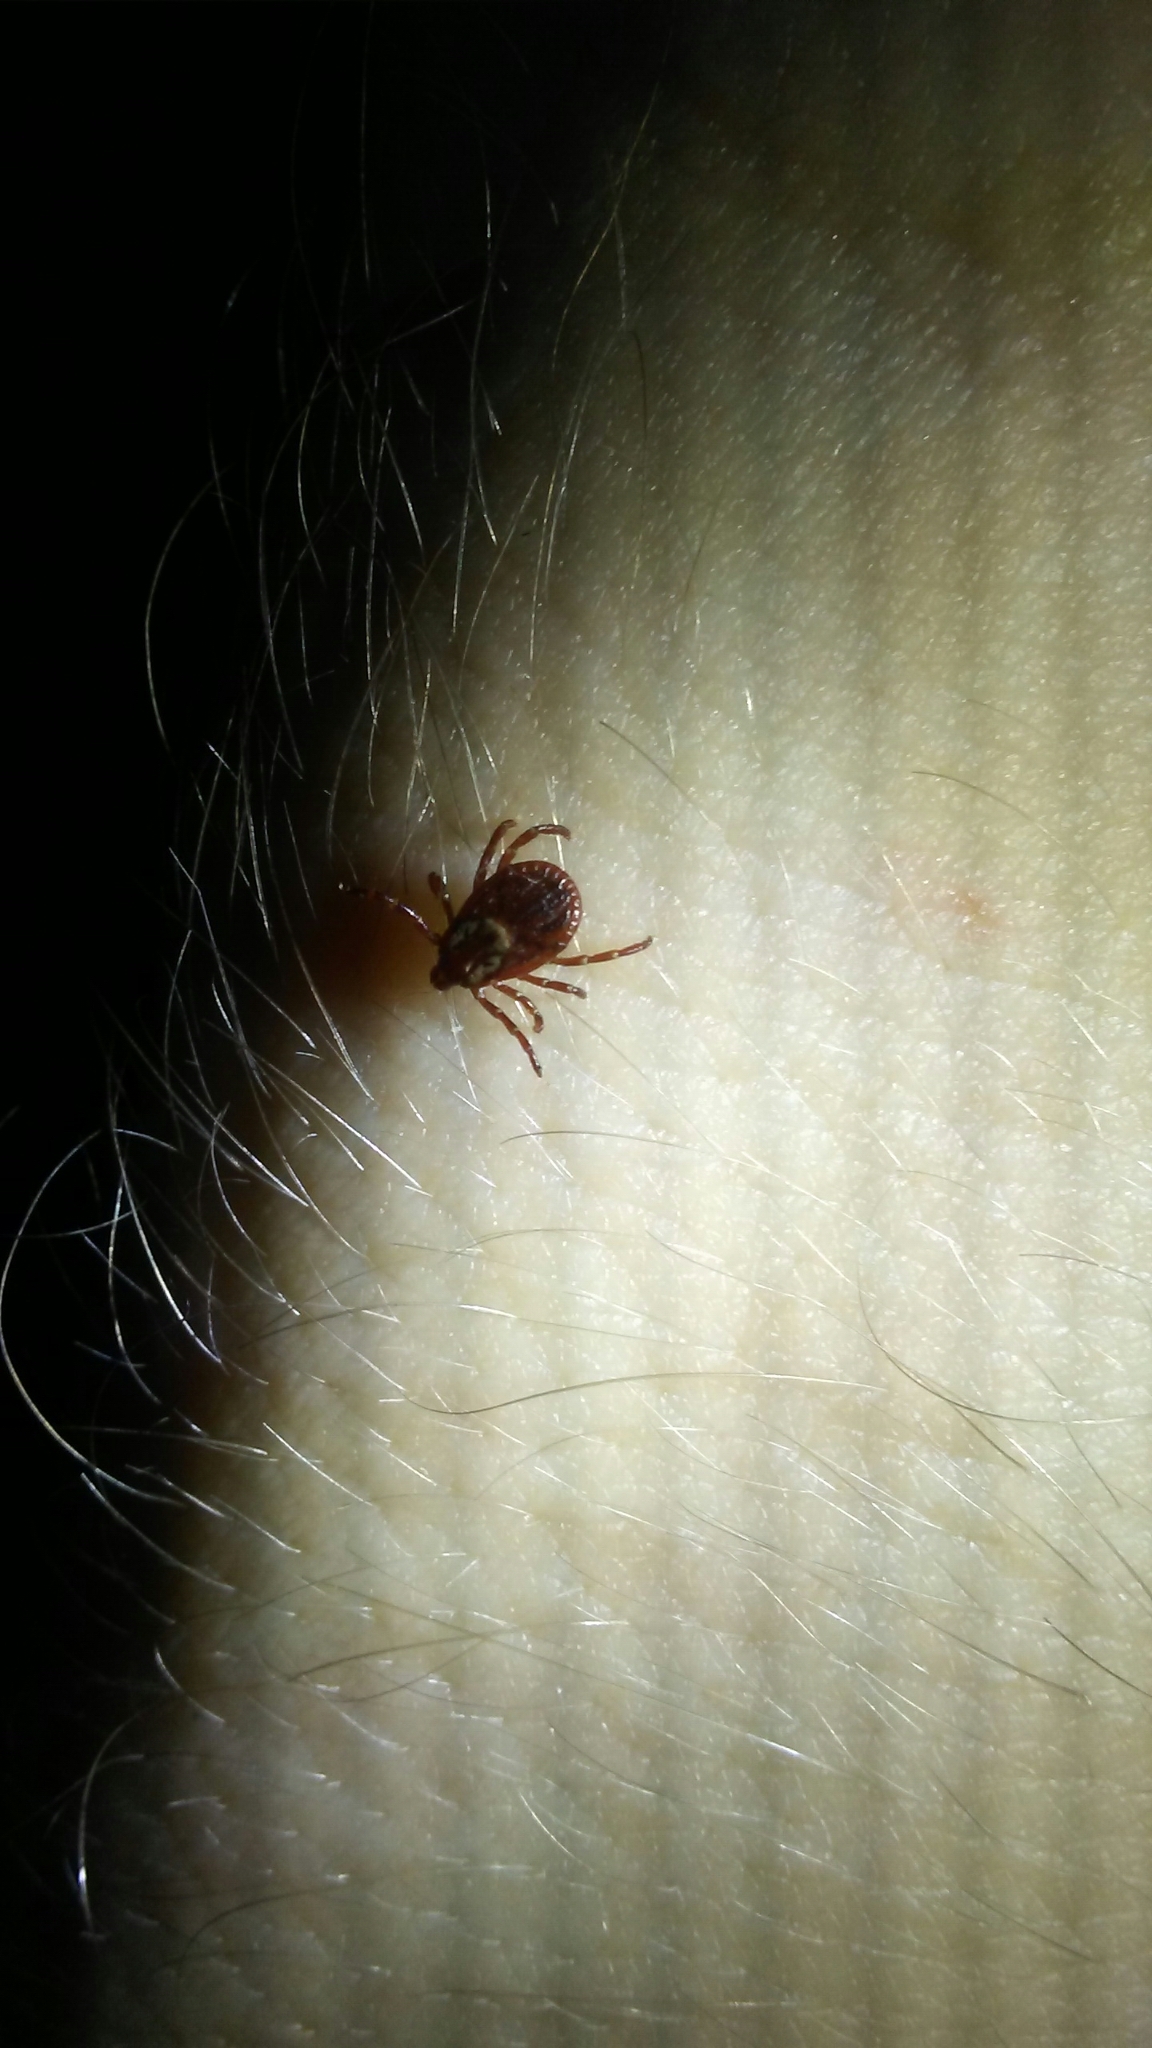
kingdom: Animalia
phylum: Arthropoda
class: Arachnida
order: Ixodida
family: Ixodidae
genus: Dermacentor
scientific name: Dermacentor variabilis
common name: American dog tick
